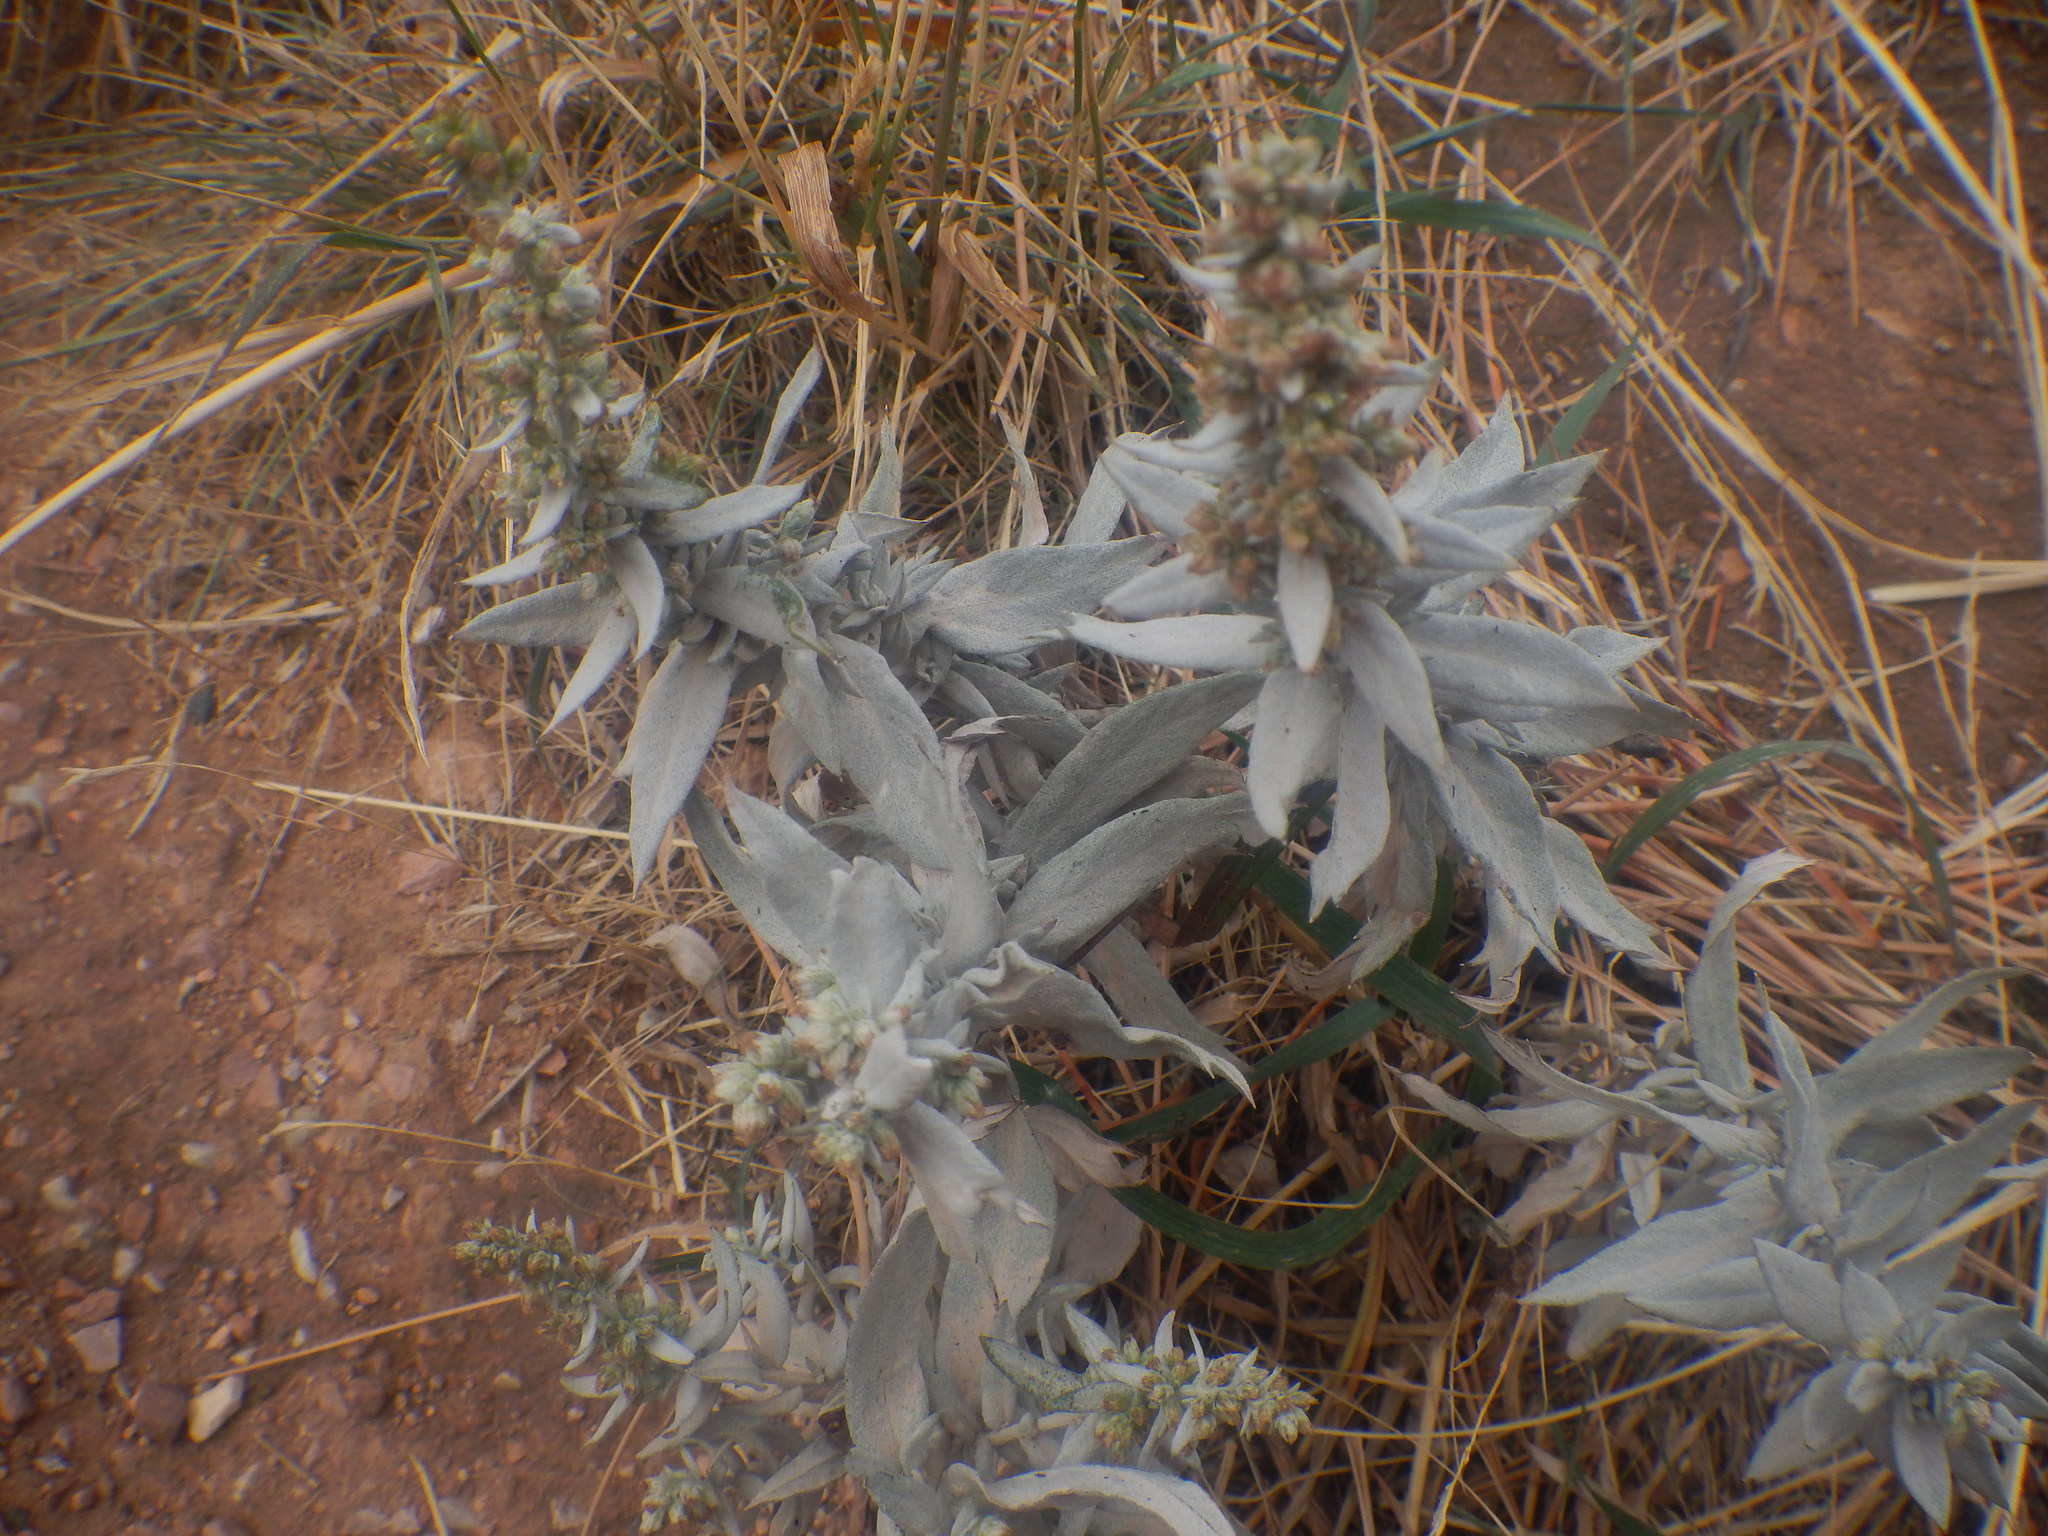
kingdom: Plantae
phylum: Tracheophyta
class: Magnoliopsida
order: Asterales
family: Asteraceae
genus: Artemisia
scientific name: Artemisia ludoviciana
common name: Western mugwort
